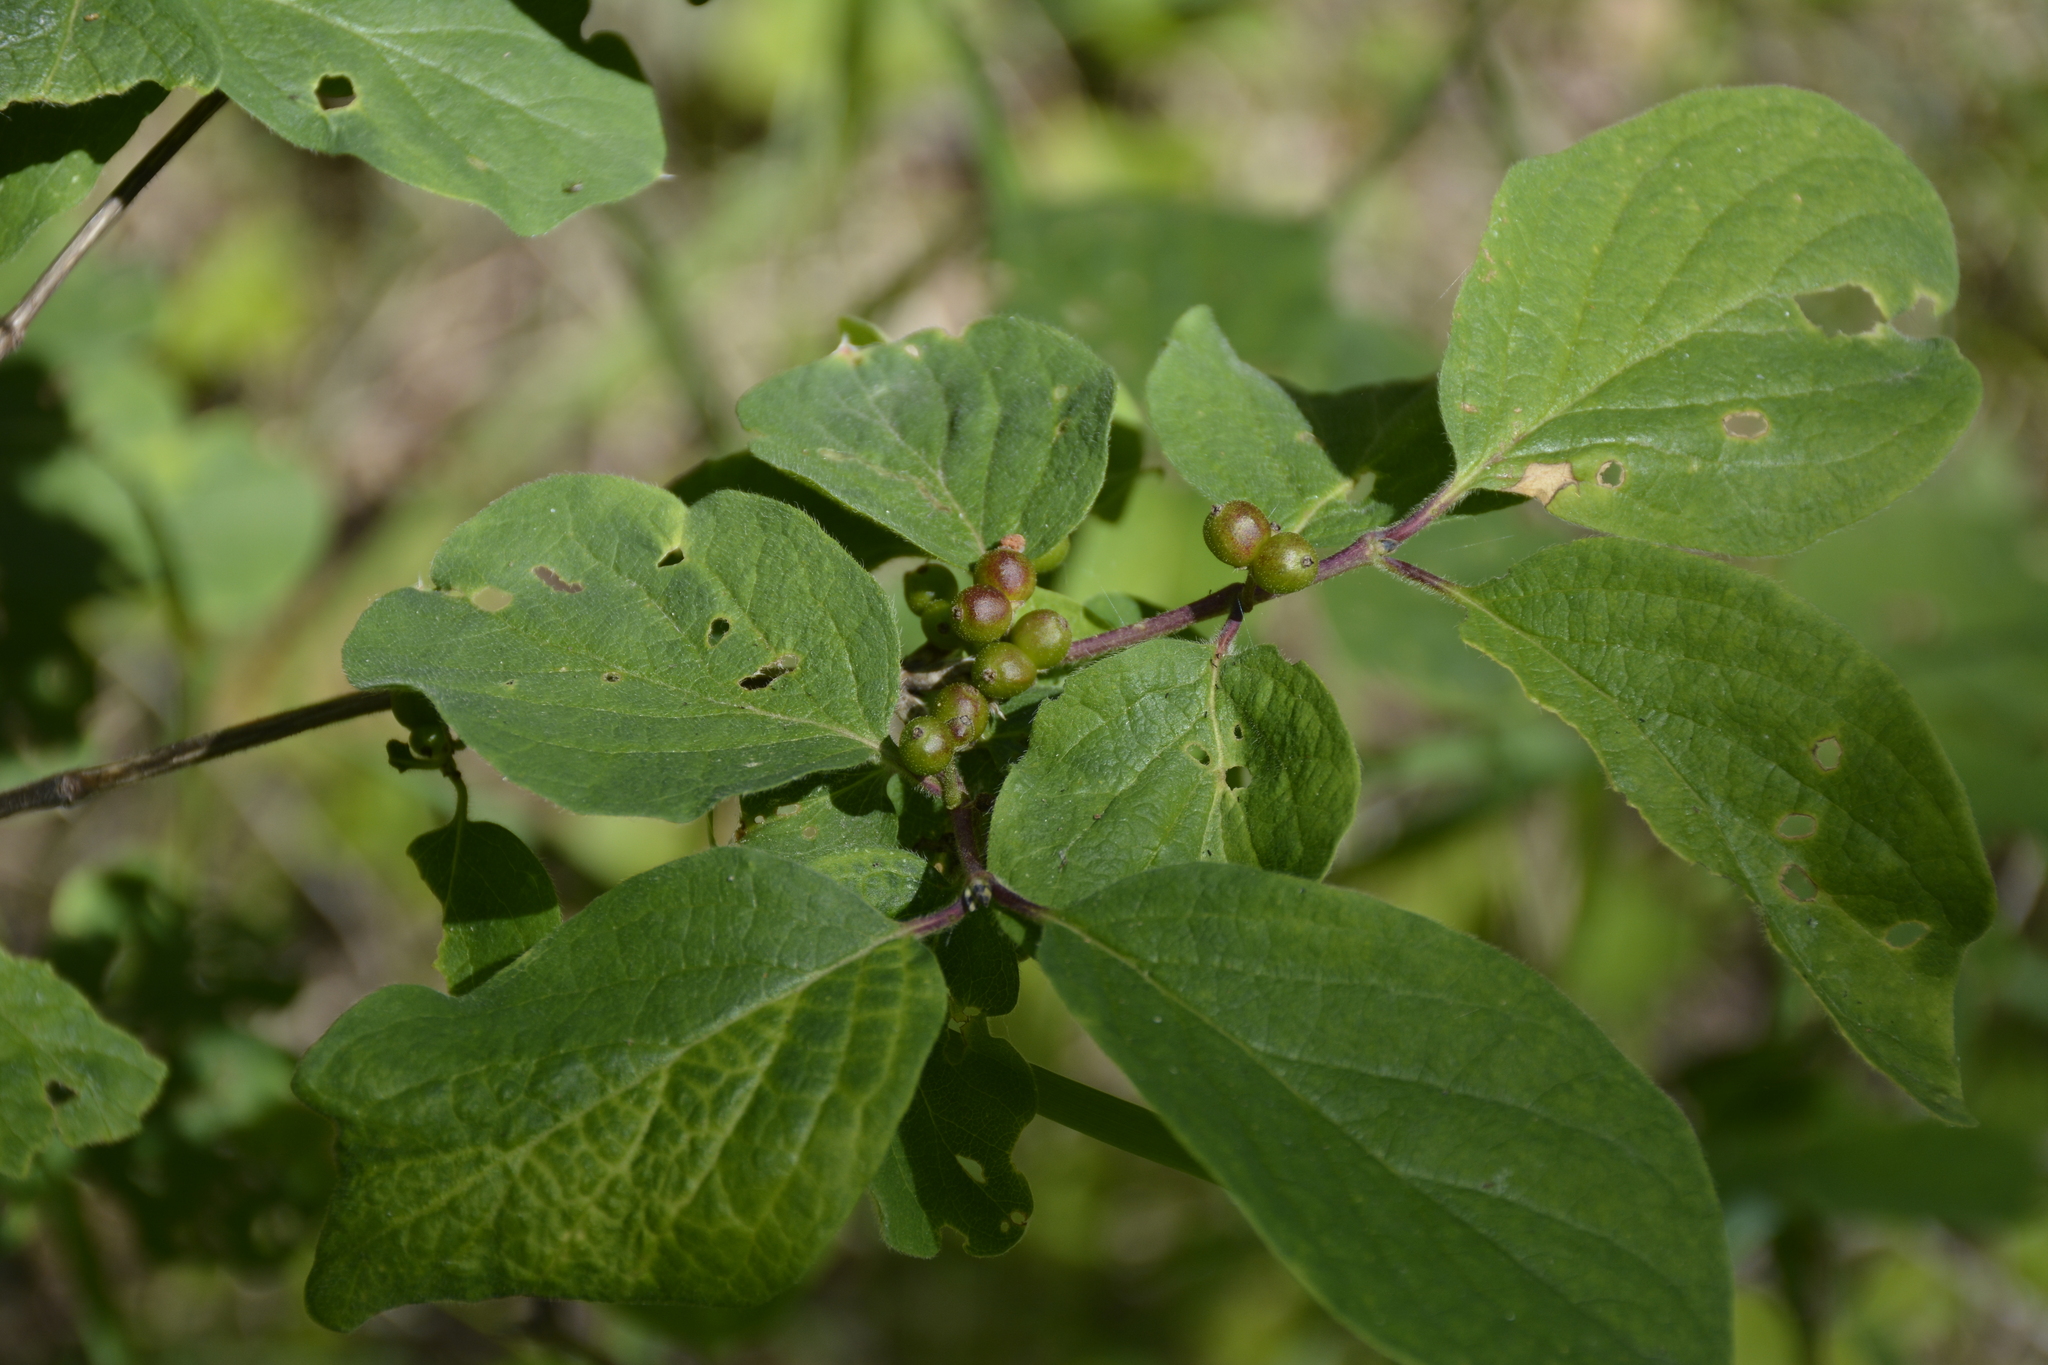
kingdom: Plantae
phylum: Tracheophyta
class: Magnoliopsida
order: Dipsacales
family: Caprifoliaceae
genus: Lonicera
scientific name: Lonicera xylosteum
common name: Fly honeysuckle
